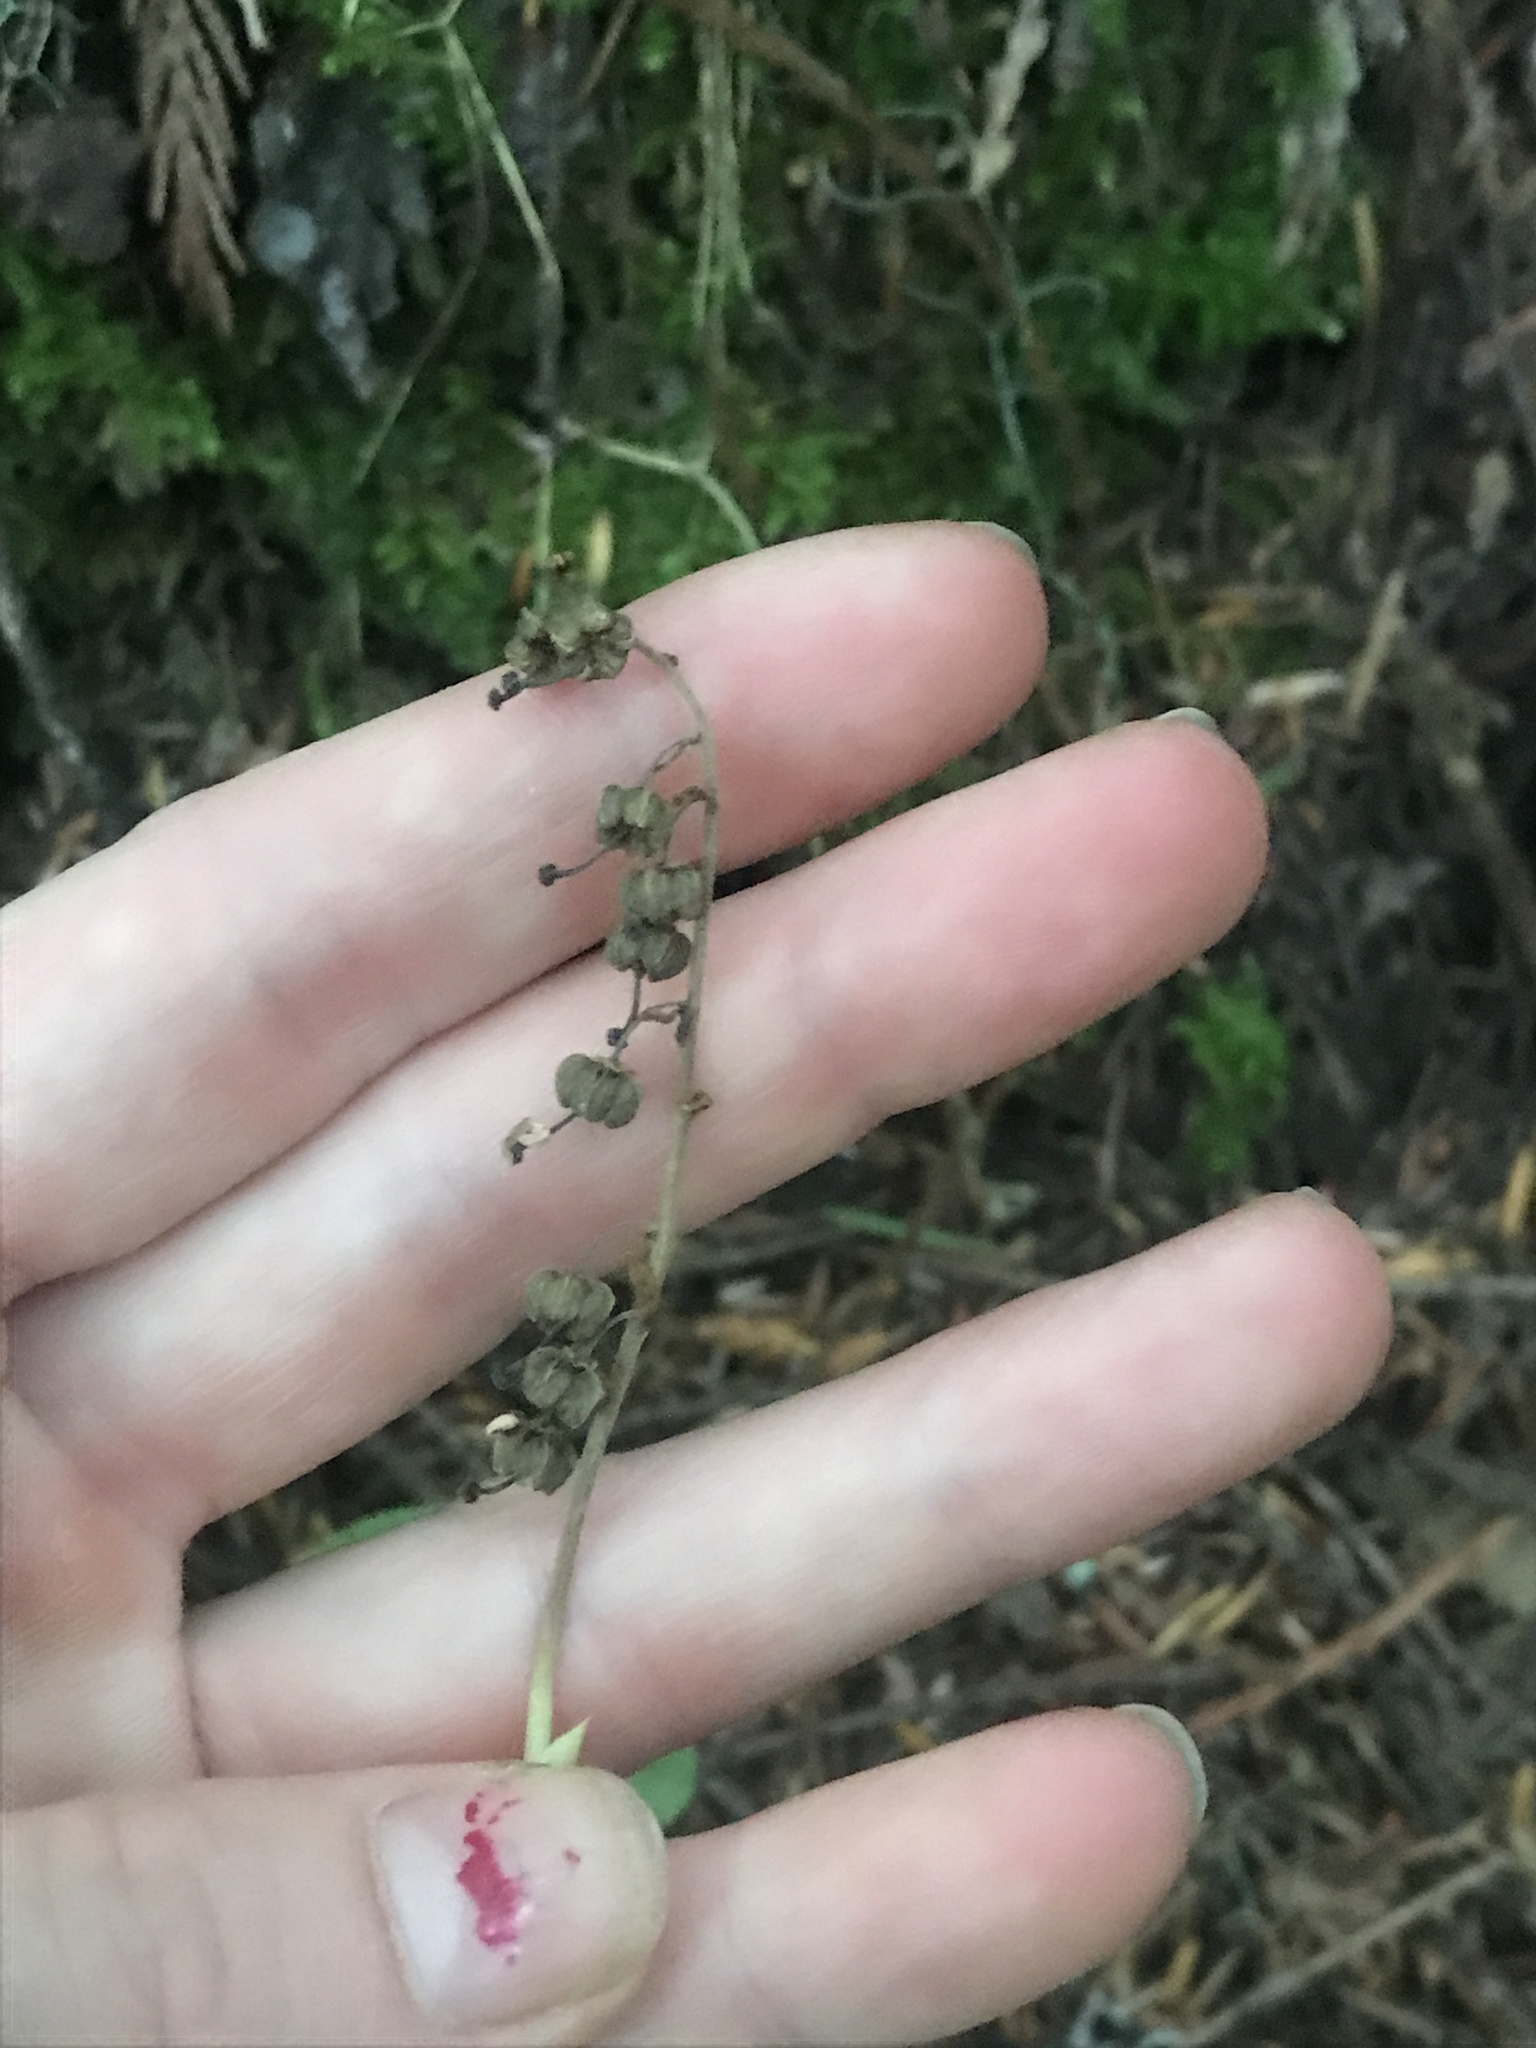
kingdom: Plantae
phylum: Tracheophyta
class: Magnoliopsida
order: Ericales
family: Ericaceae
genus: Orthilia
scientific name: Orthilia secunda
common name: One-sided orthilia
